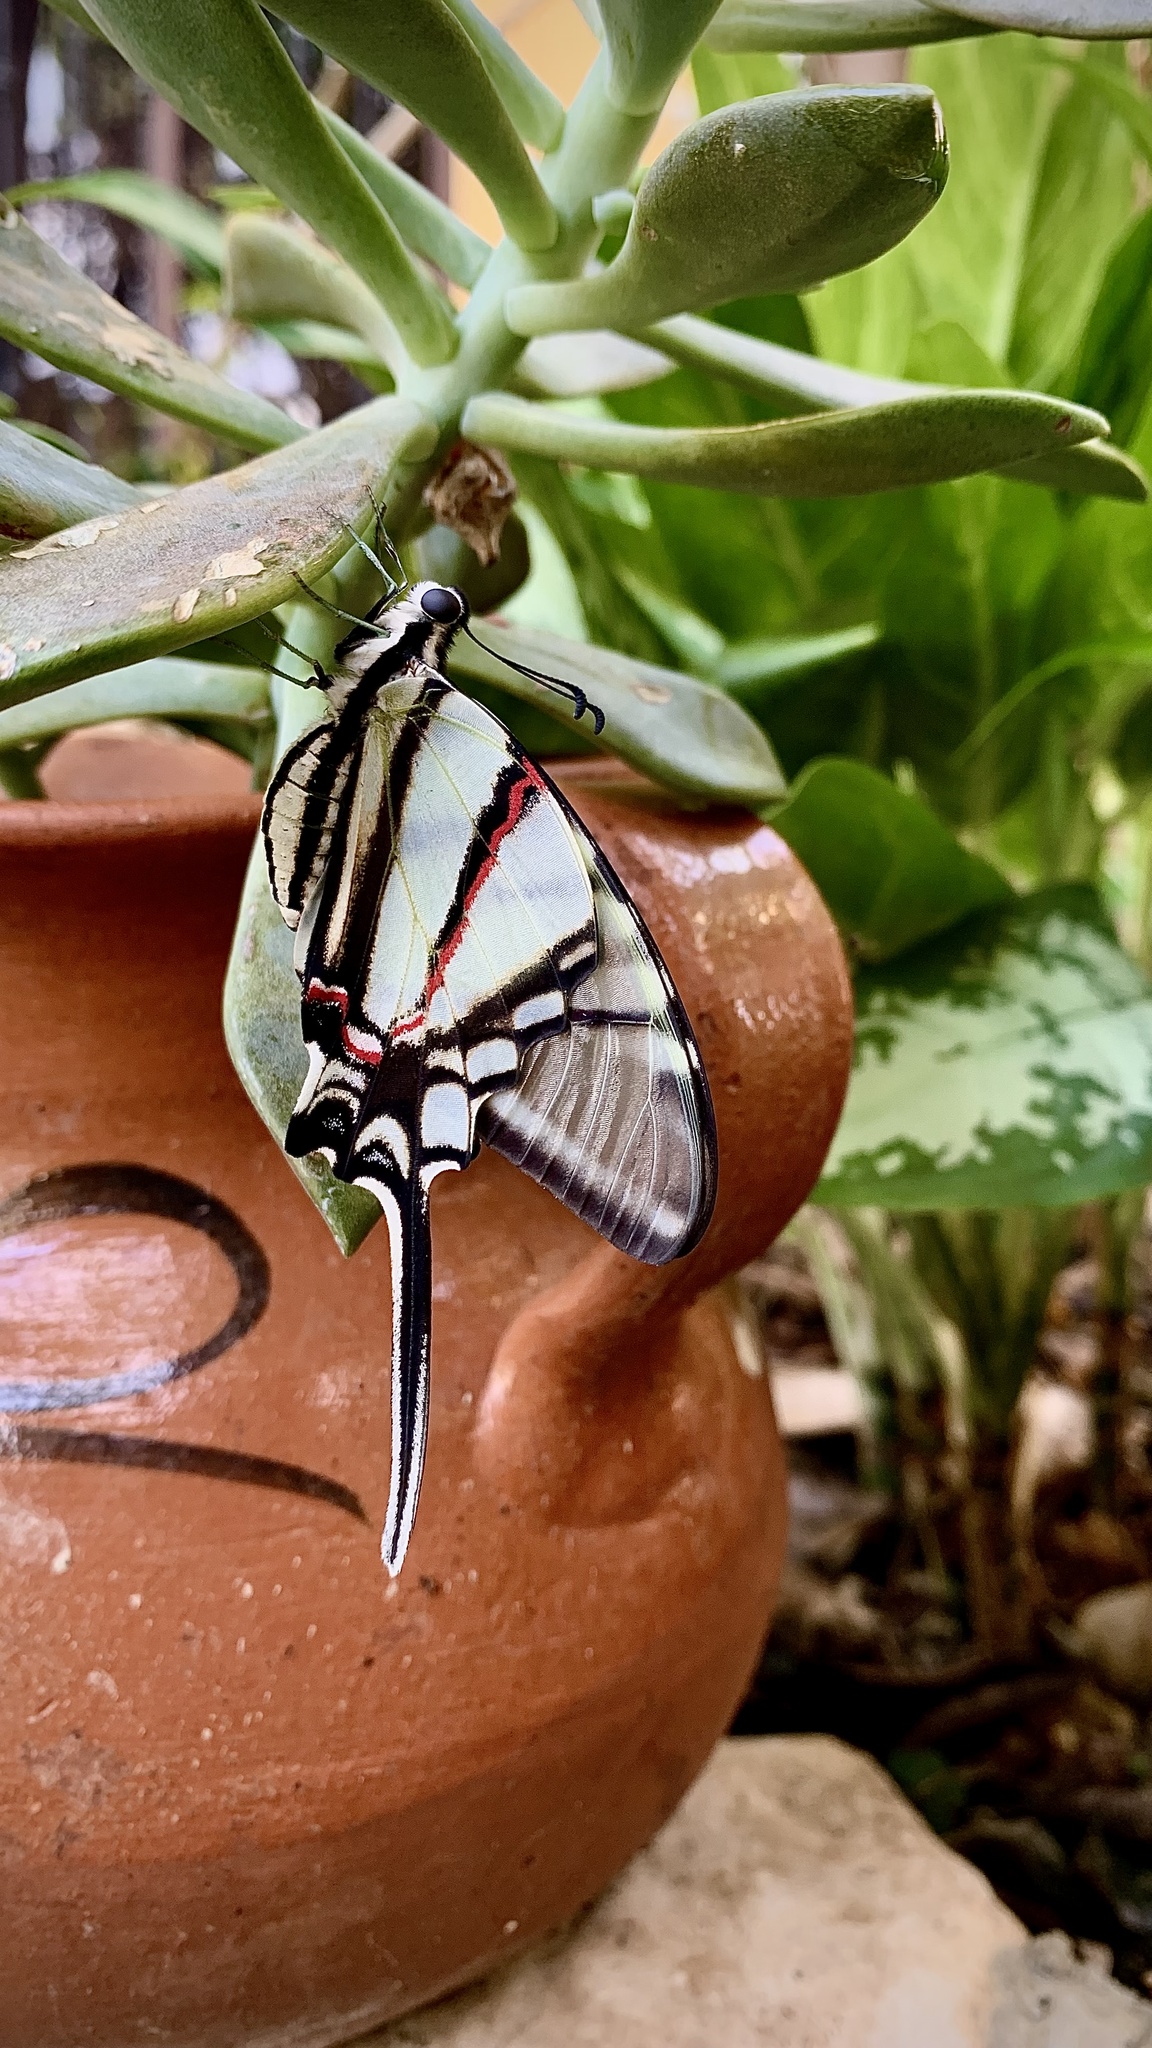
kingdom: Animalia
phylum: Arthropoda
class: Insecta
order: Lepidoptera
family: Papilionidae
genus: Protographium
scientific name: Protographium epidaus
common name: Mexican kite swallowtail
